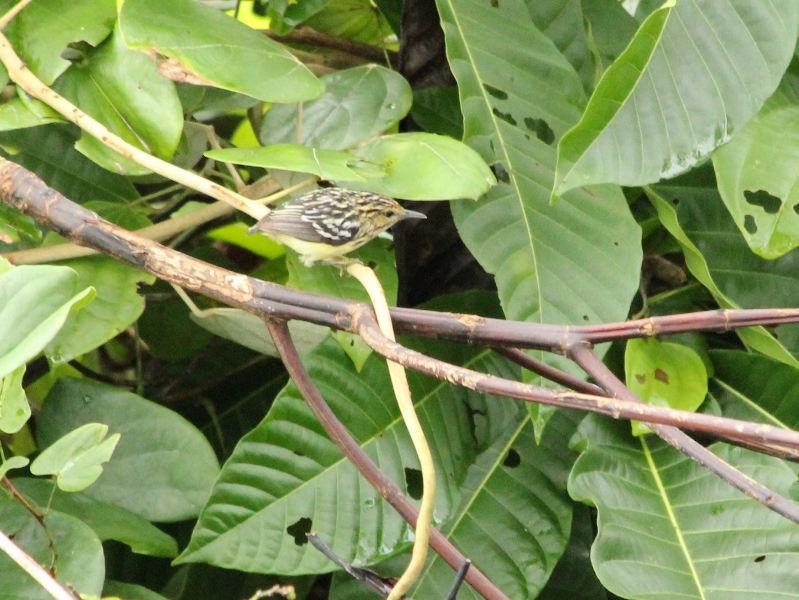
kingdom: Animalia
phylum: Chordata
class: Aves
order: Passeriformes
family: Thamnophilidae
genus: Myrmotherula
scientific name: Myrmotherula brachyura
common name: Pygmy antwren
